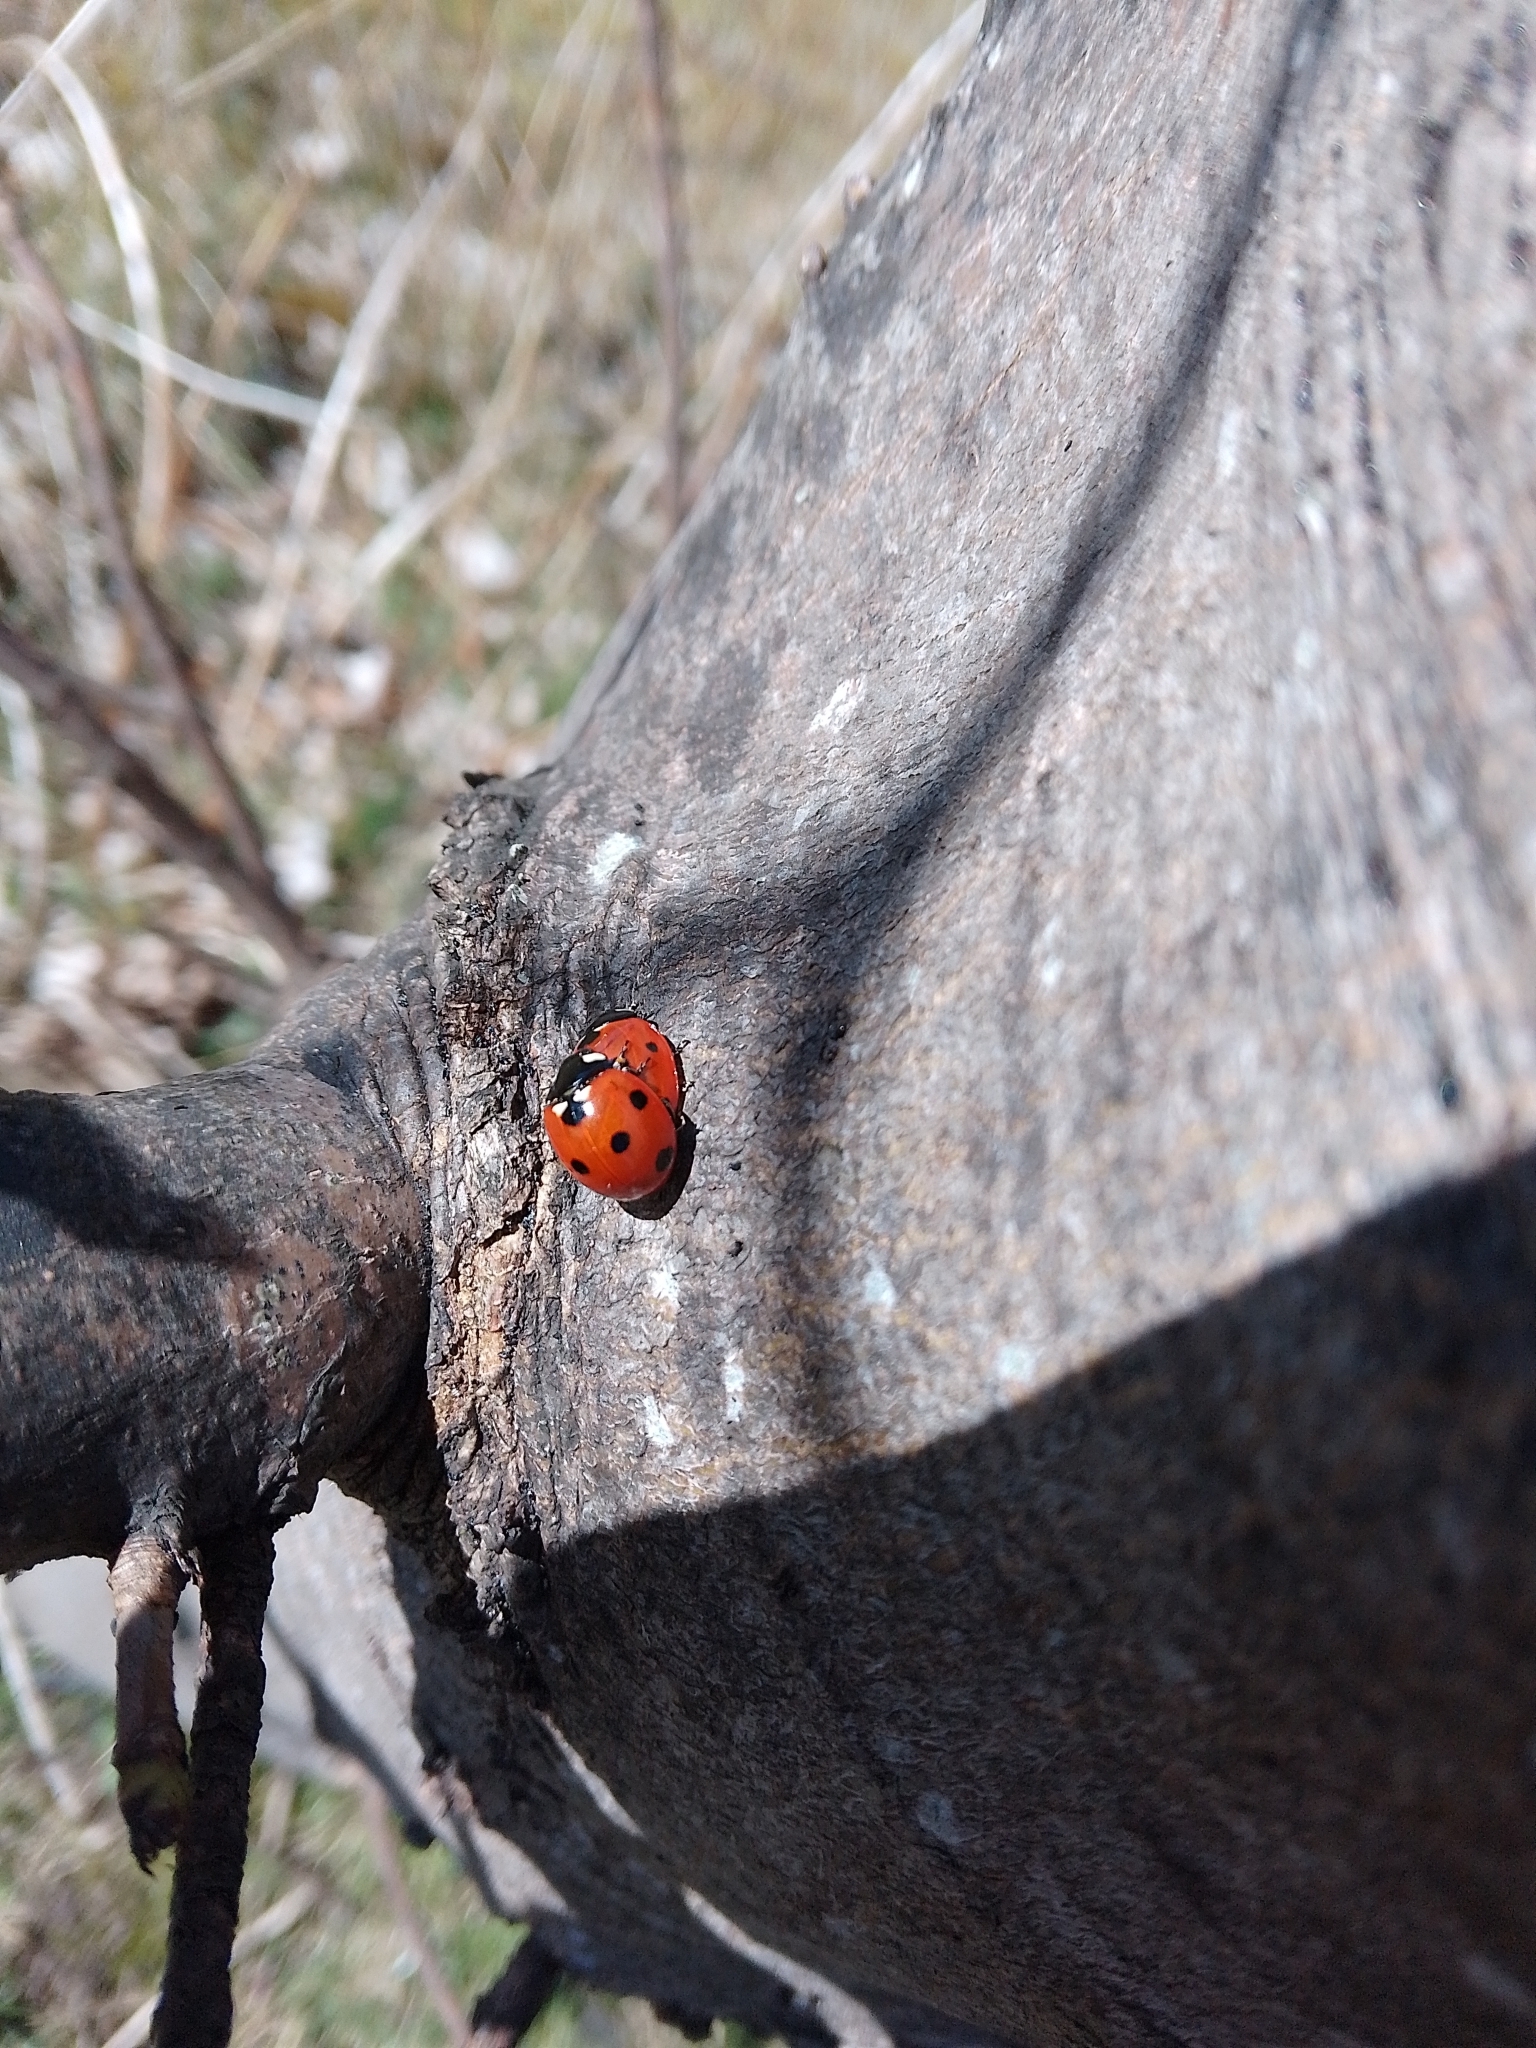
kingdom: Animalia
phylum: Arthropoda
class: Insecta
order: Coleoptera
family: Coccinellidae
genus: Coccinella
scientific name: Coccinella septempunctata
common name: Sevenspotted lady beetle
